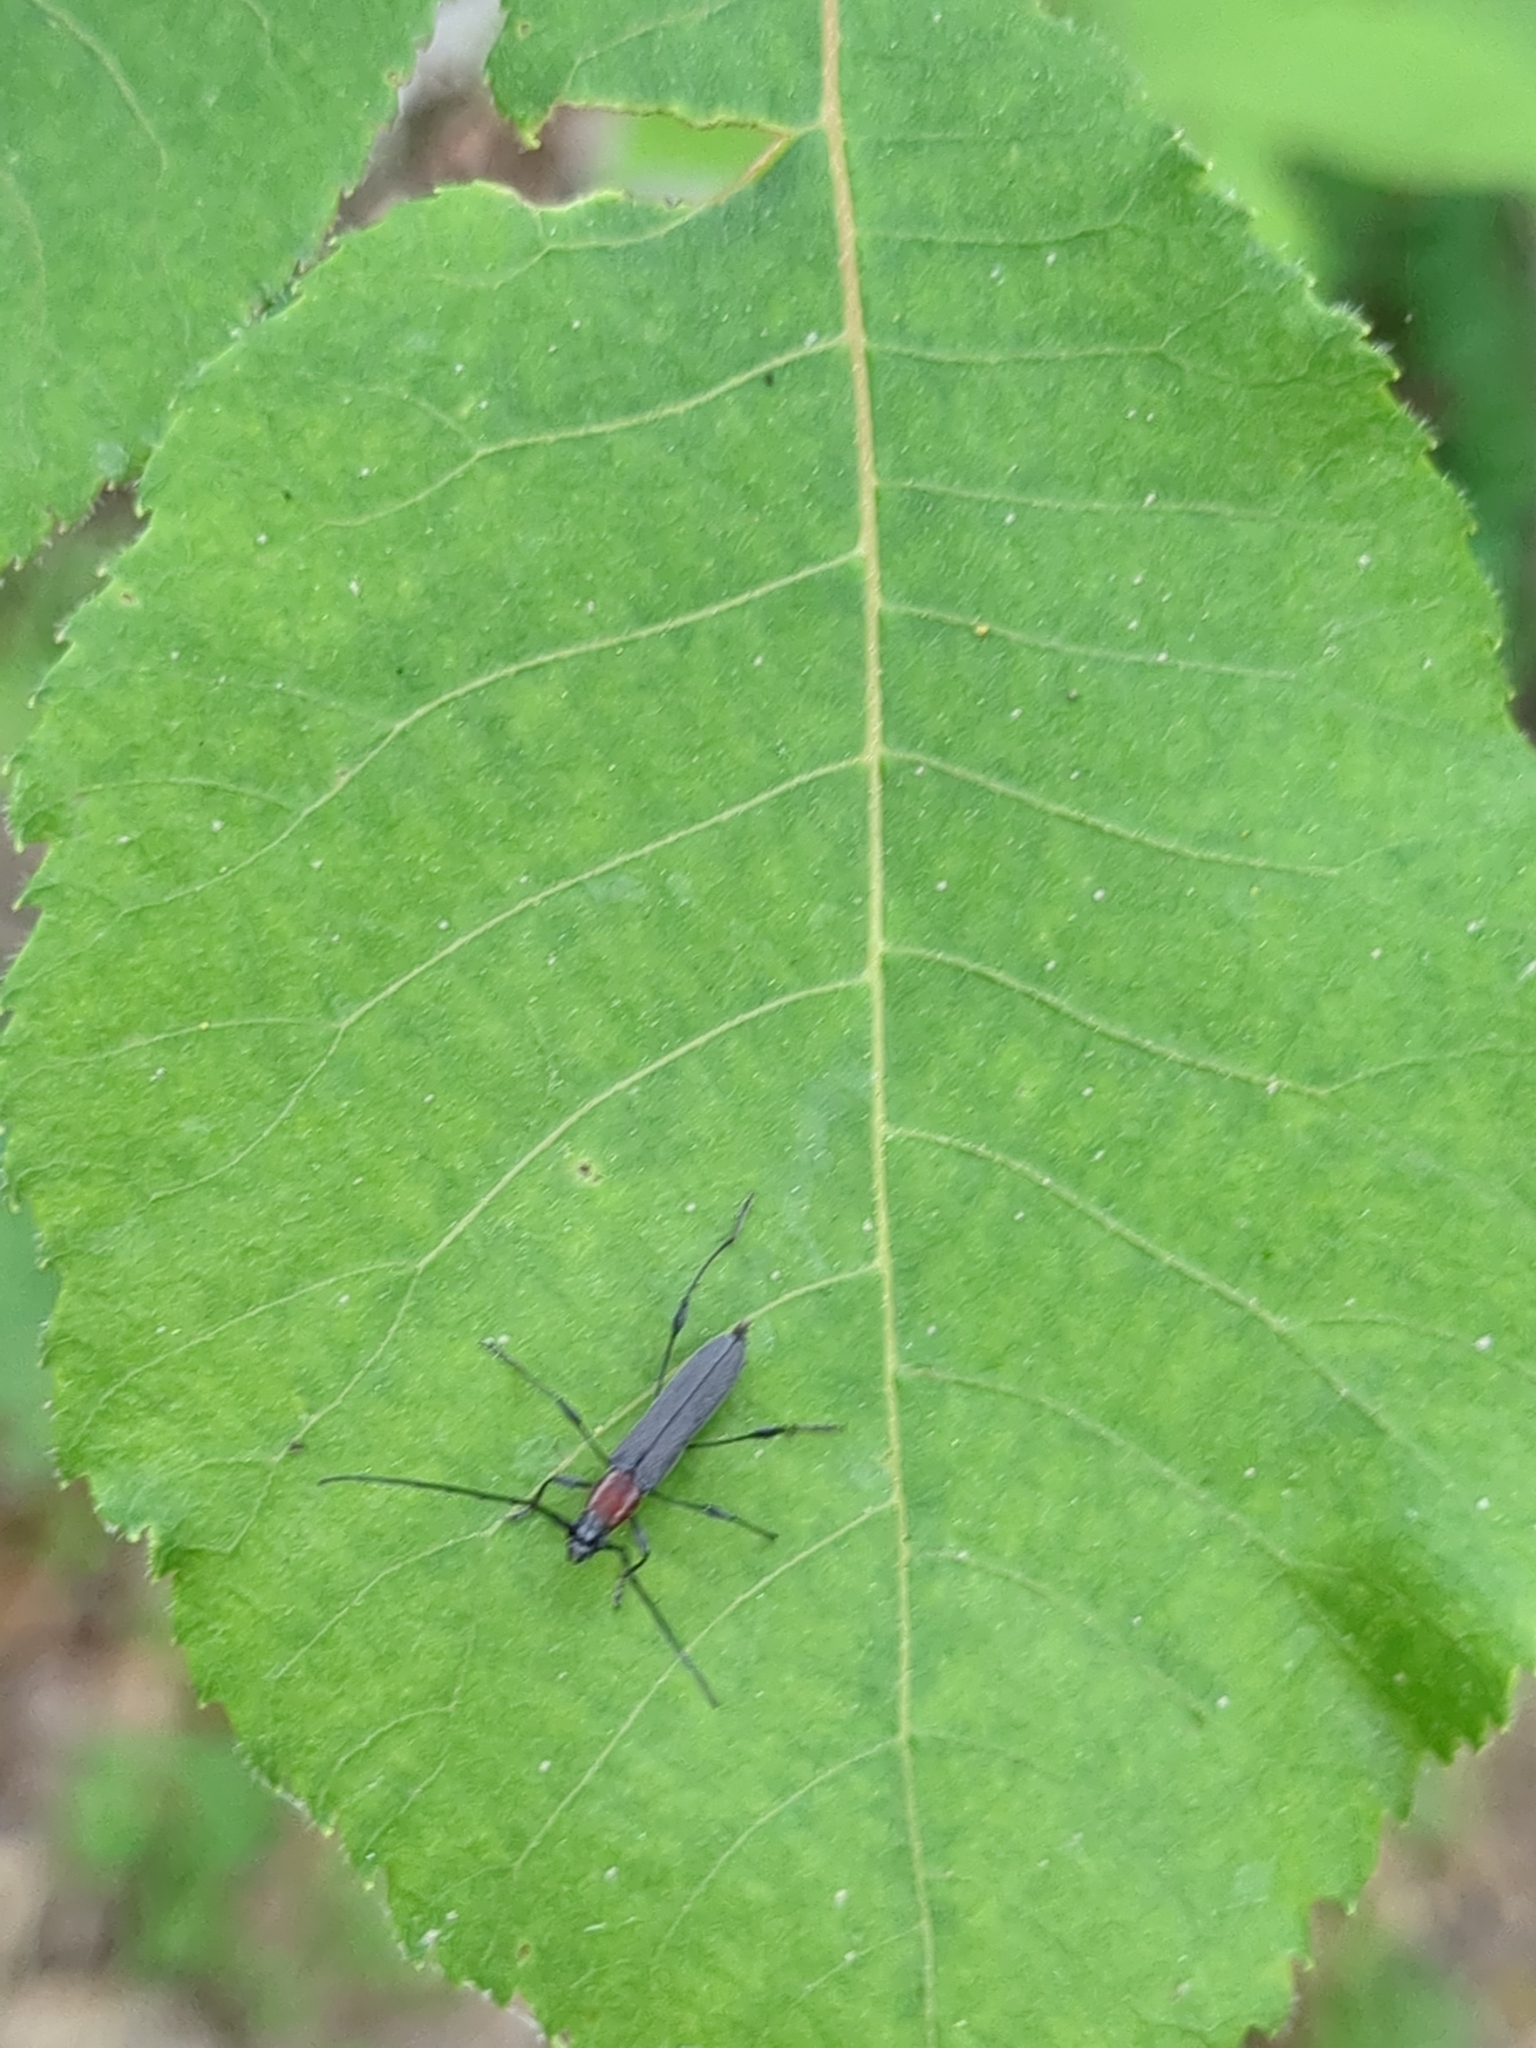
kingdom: Animalia
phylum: Arthropoda
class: Insecta
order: Coleoptera
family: Cerambycidae
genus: Rhopalophora
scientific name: Rhopalophora longipes
